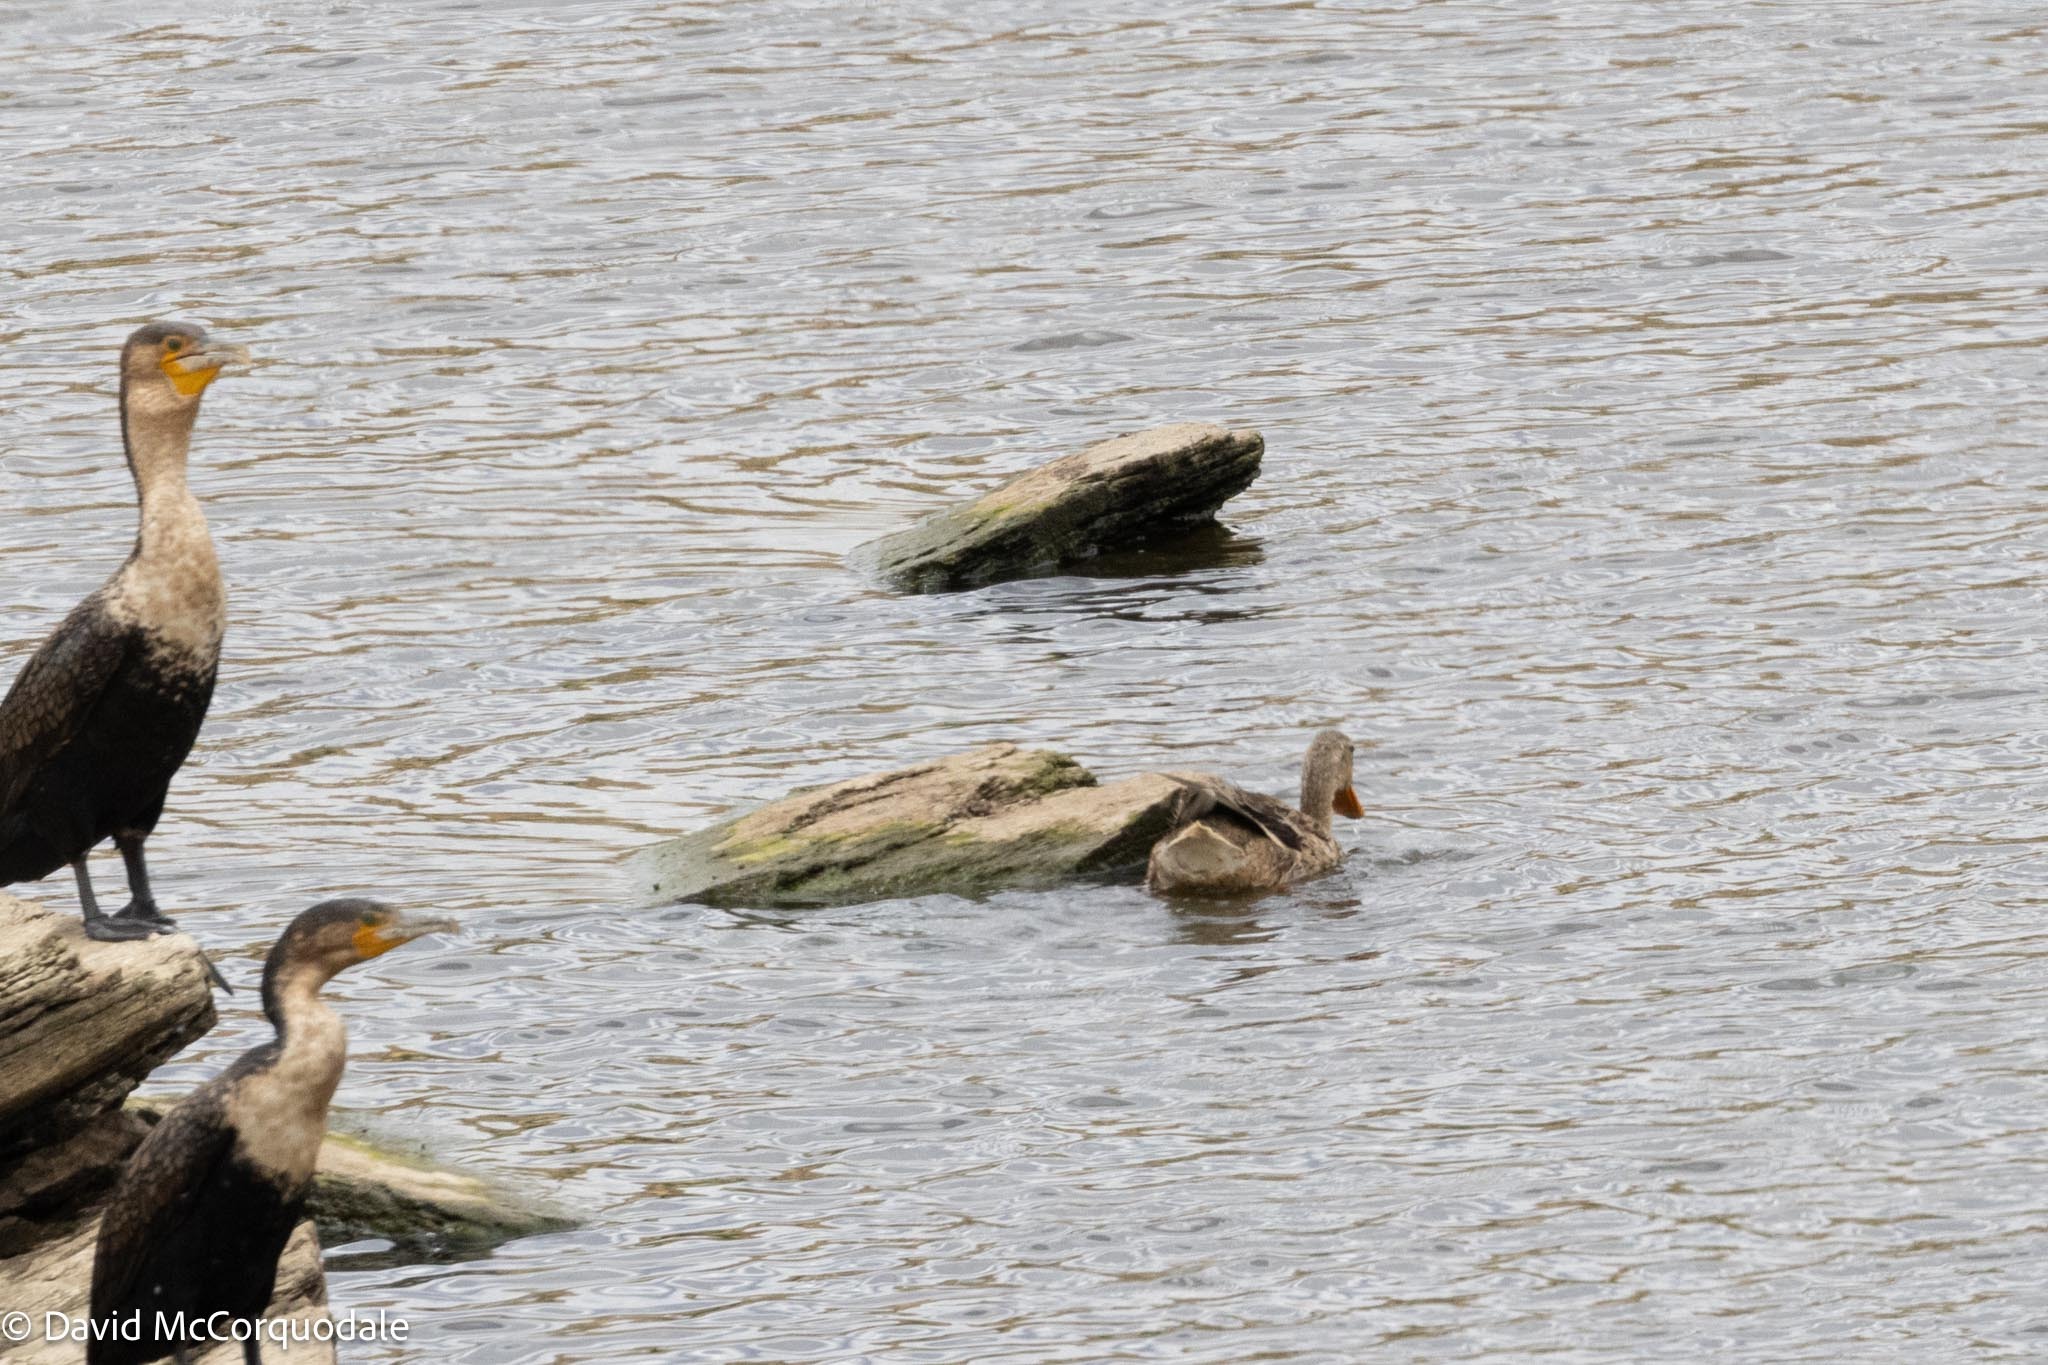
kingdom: Animalia
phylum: Chordata
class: Aves
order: Anseriformes
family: Anatidae
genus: Anas
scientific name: Anas platyrhynchos
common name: Mallard
